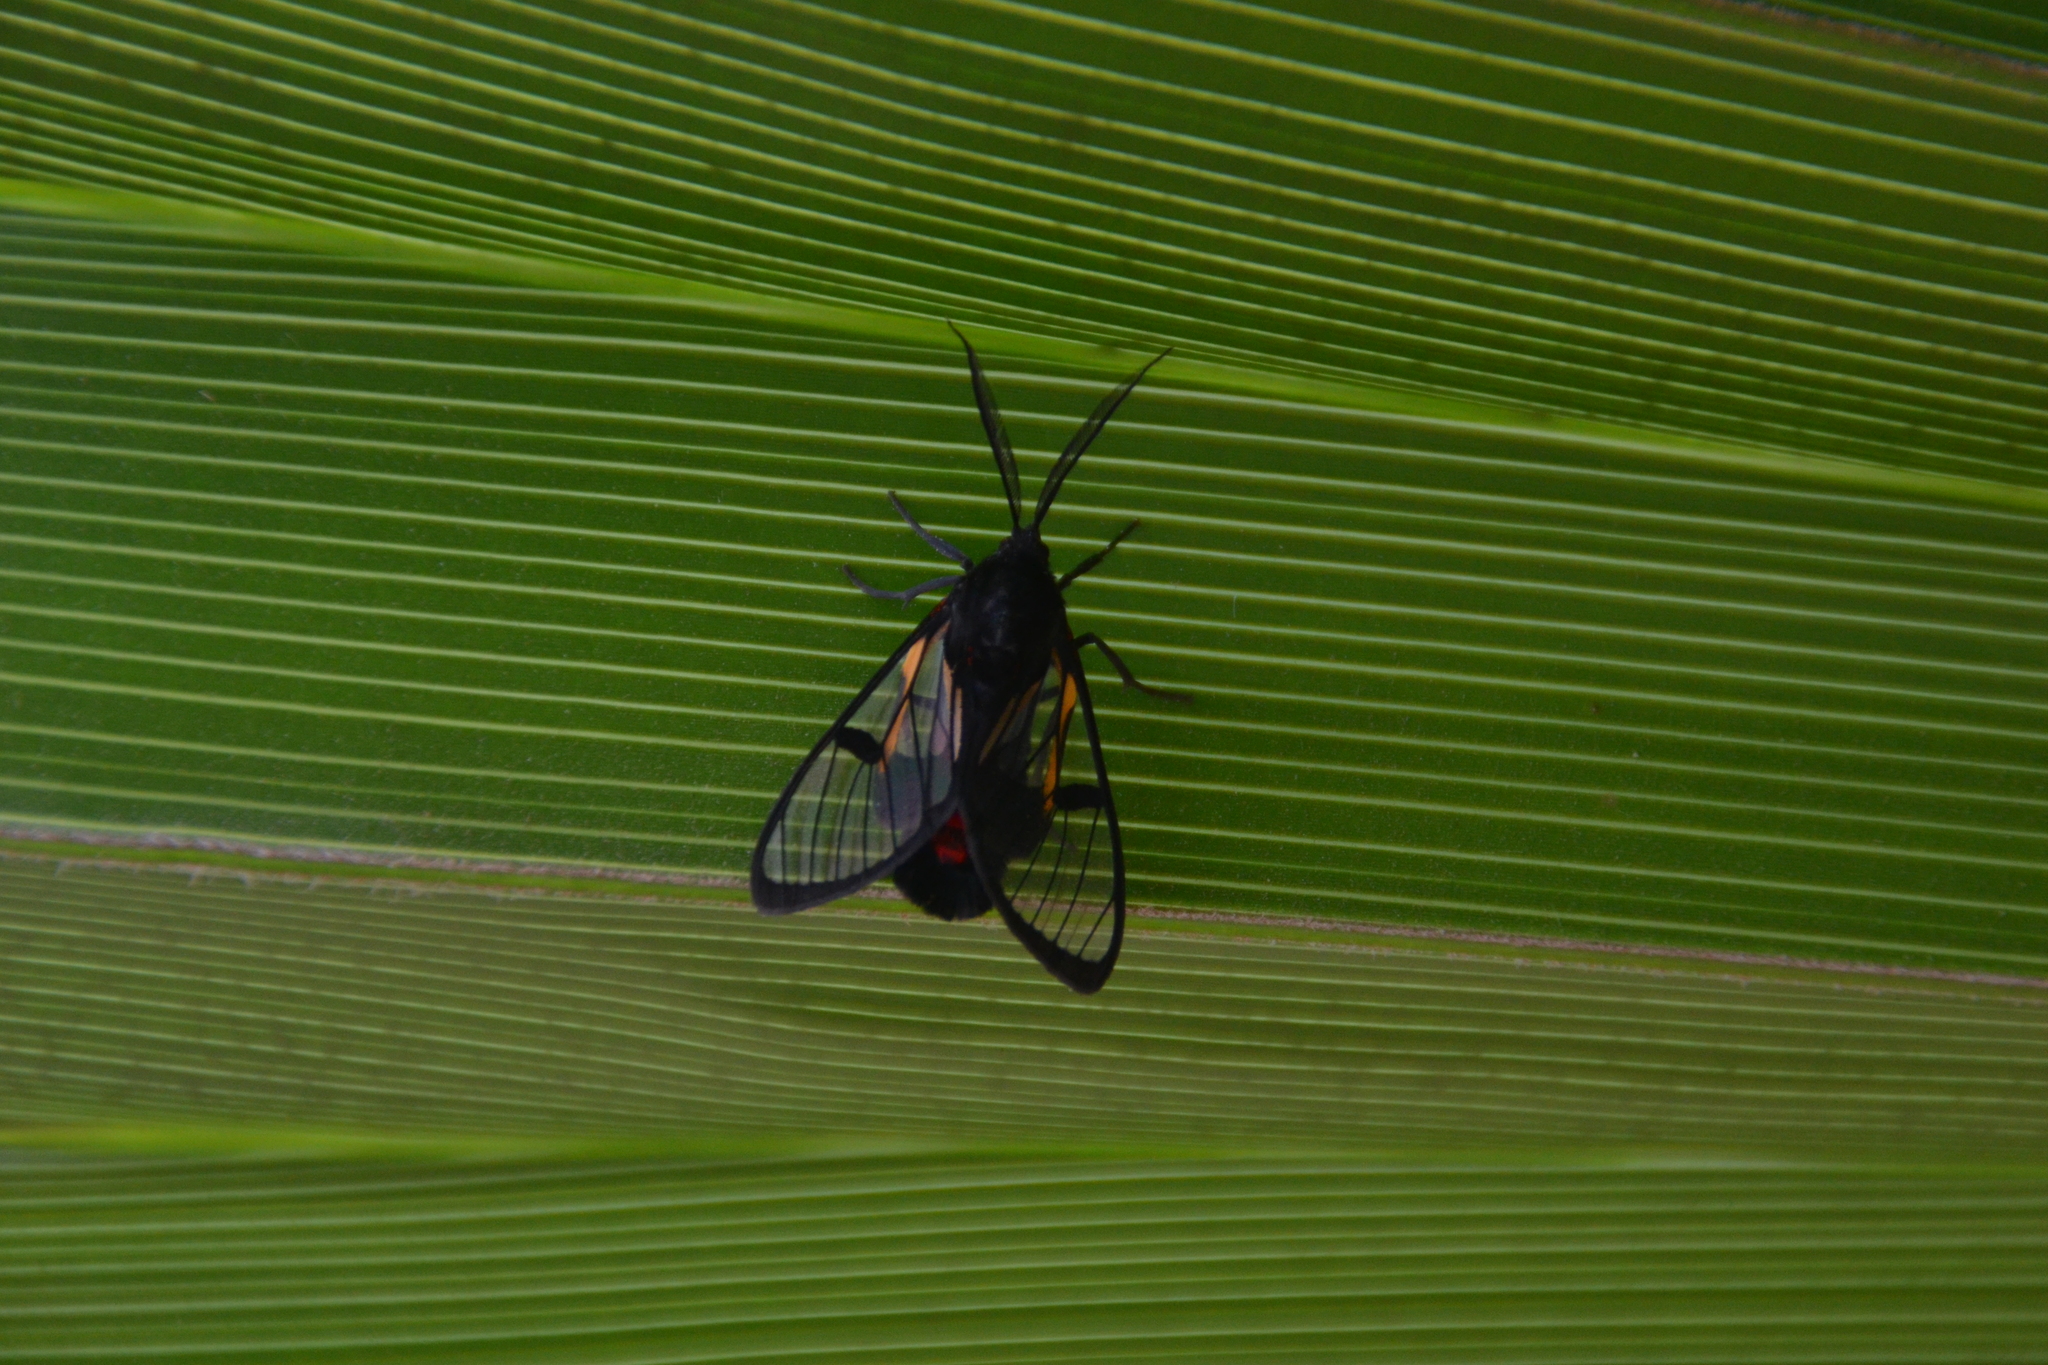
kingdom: Animalia
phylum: Arthropoda
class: Insecta
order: Lepidoptera
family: Erebidae
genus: Dinia
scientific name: Dinia subapicalis
